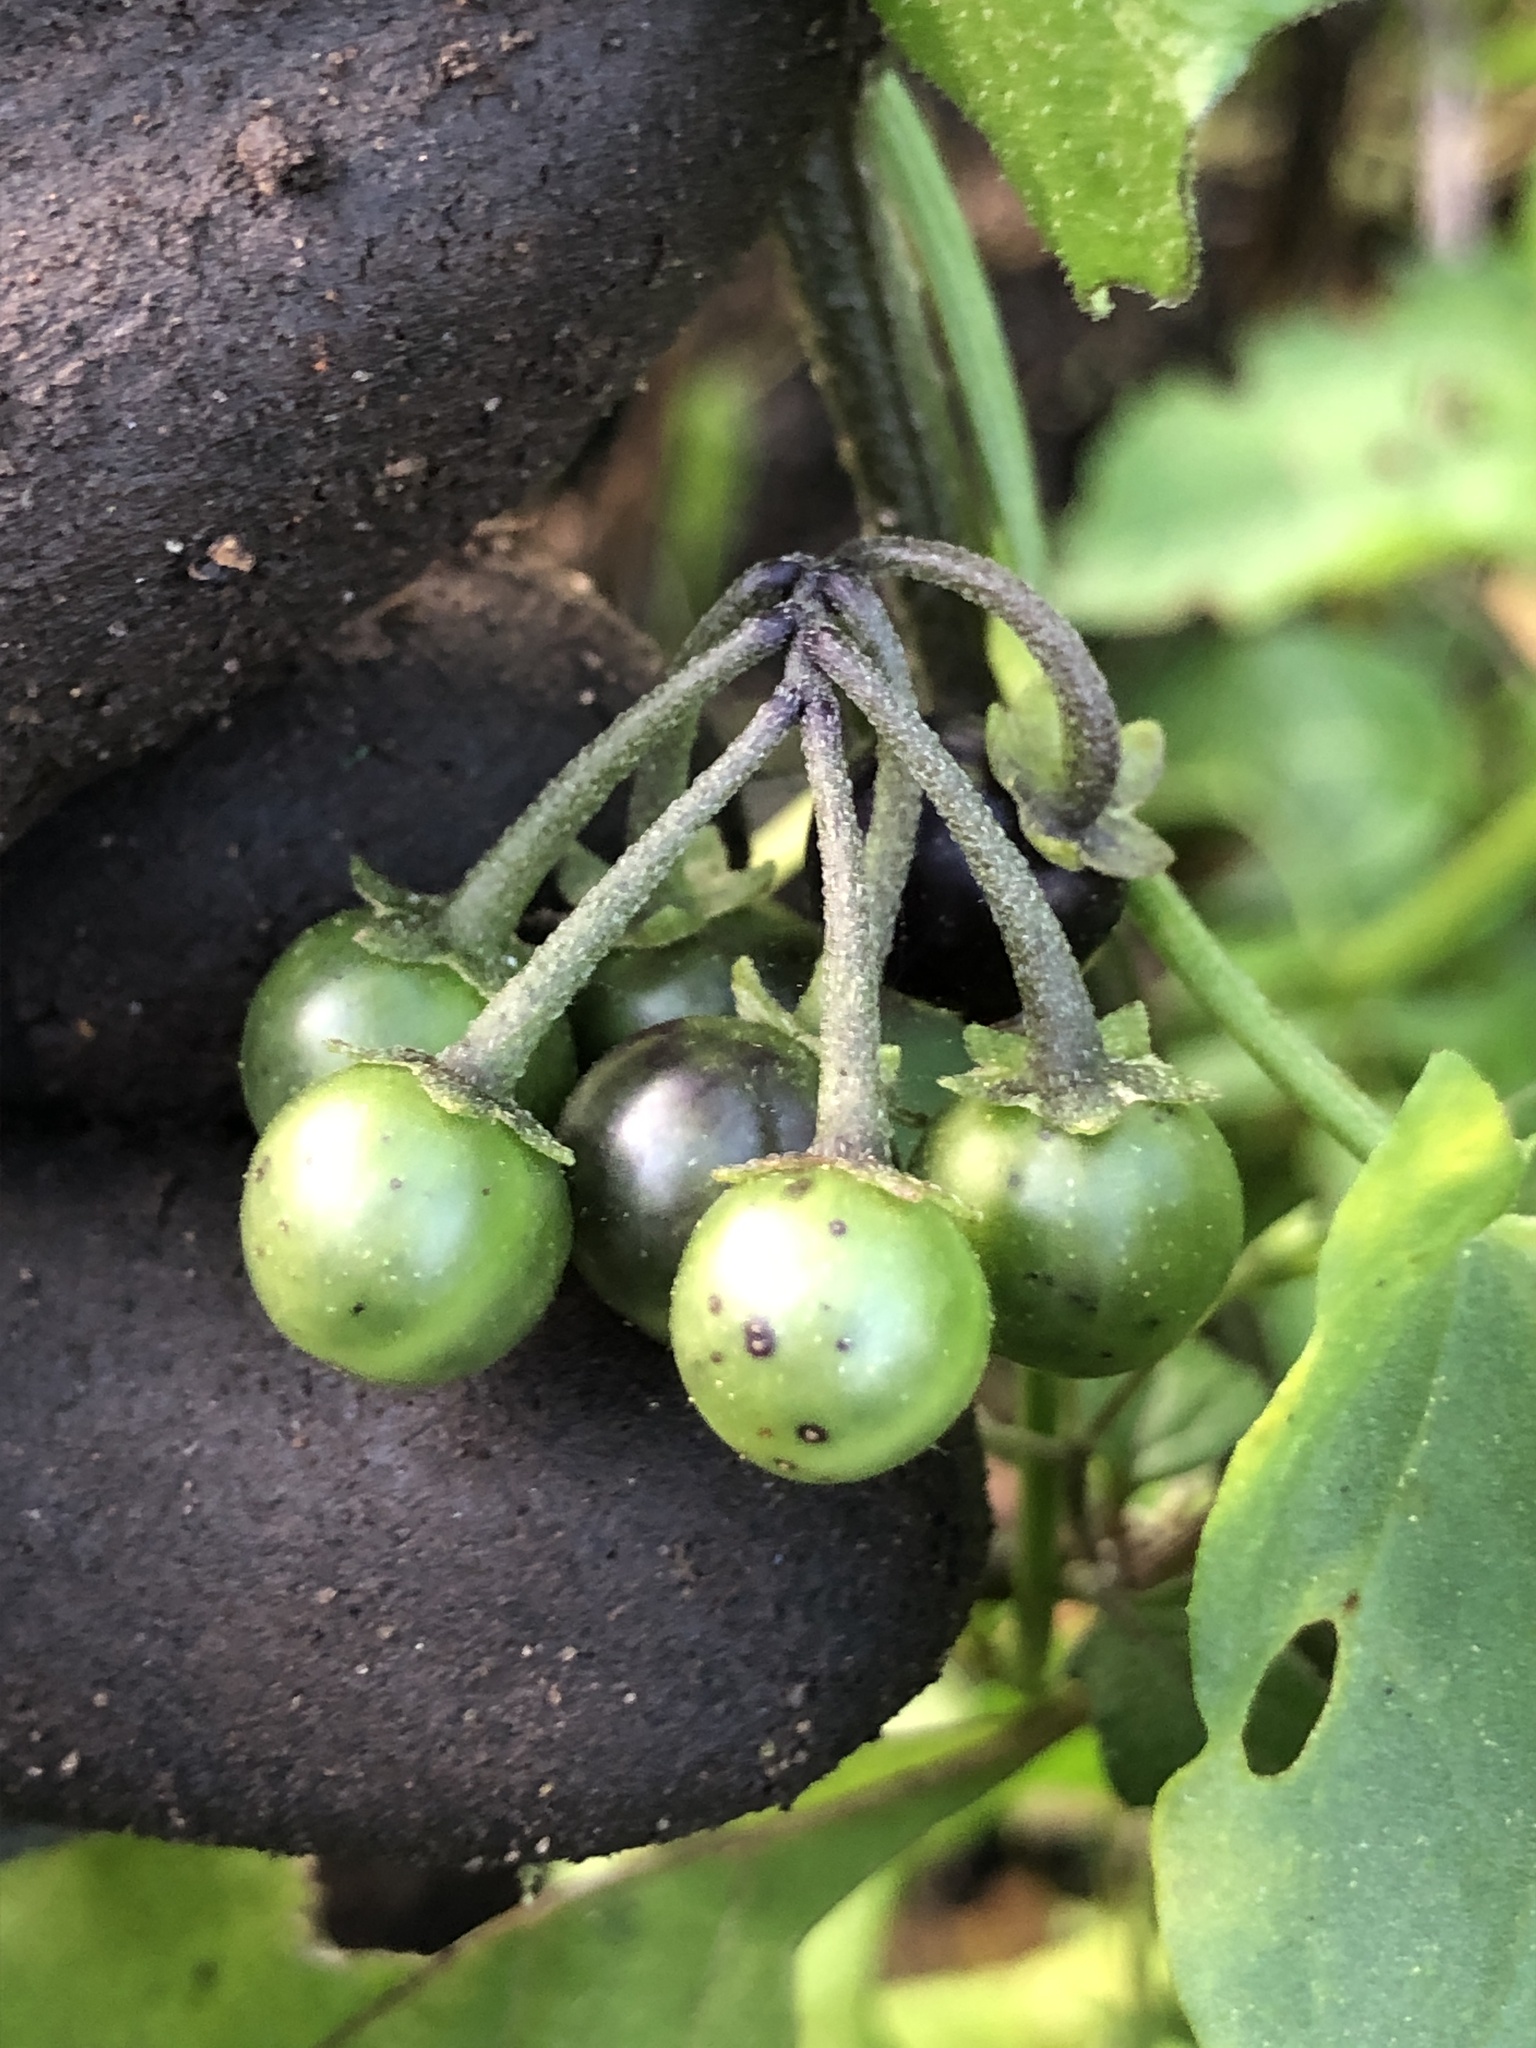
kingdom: Plantae
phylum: Tracheophyta
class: Magnoliopsida
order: Solanales
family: Solanaceae
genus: Solanum
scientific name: Solanum nigrum
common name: Black nightshade
